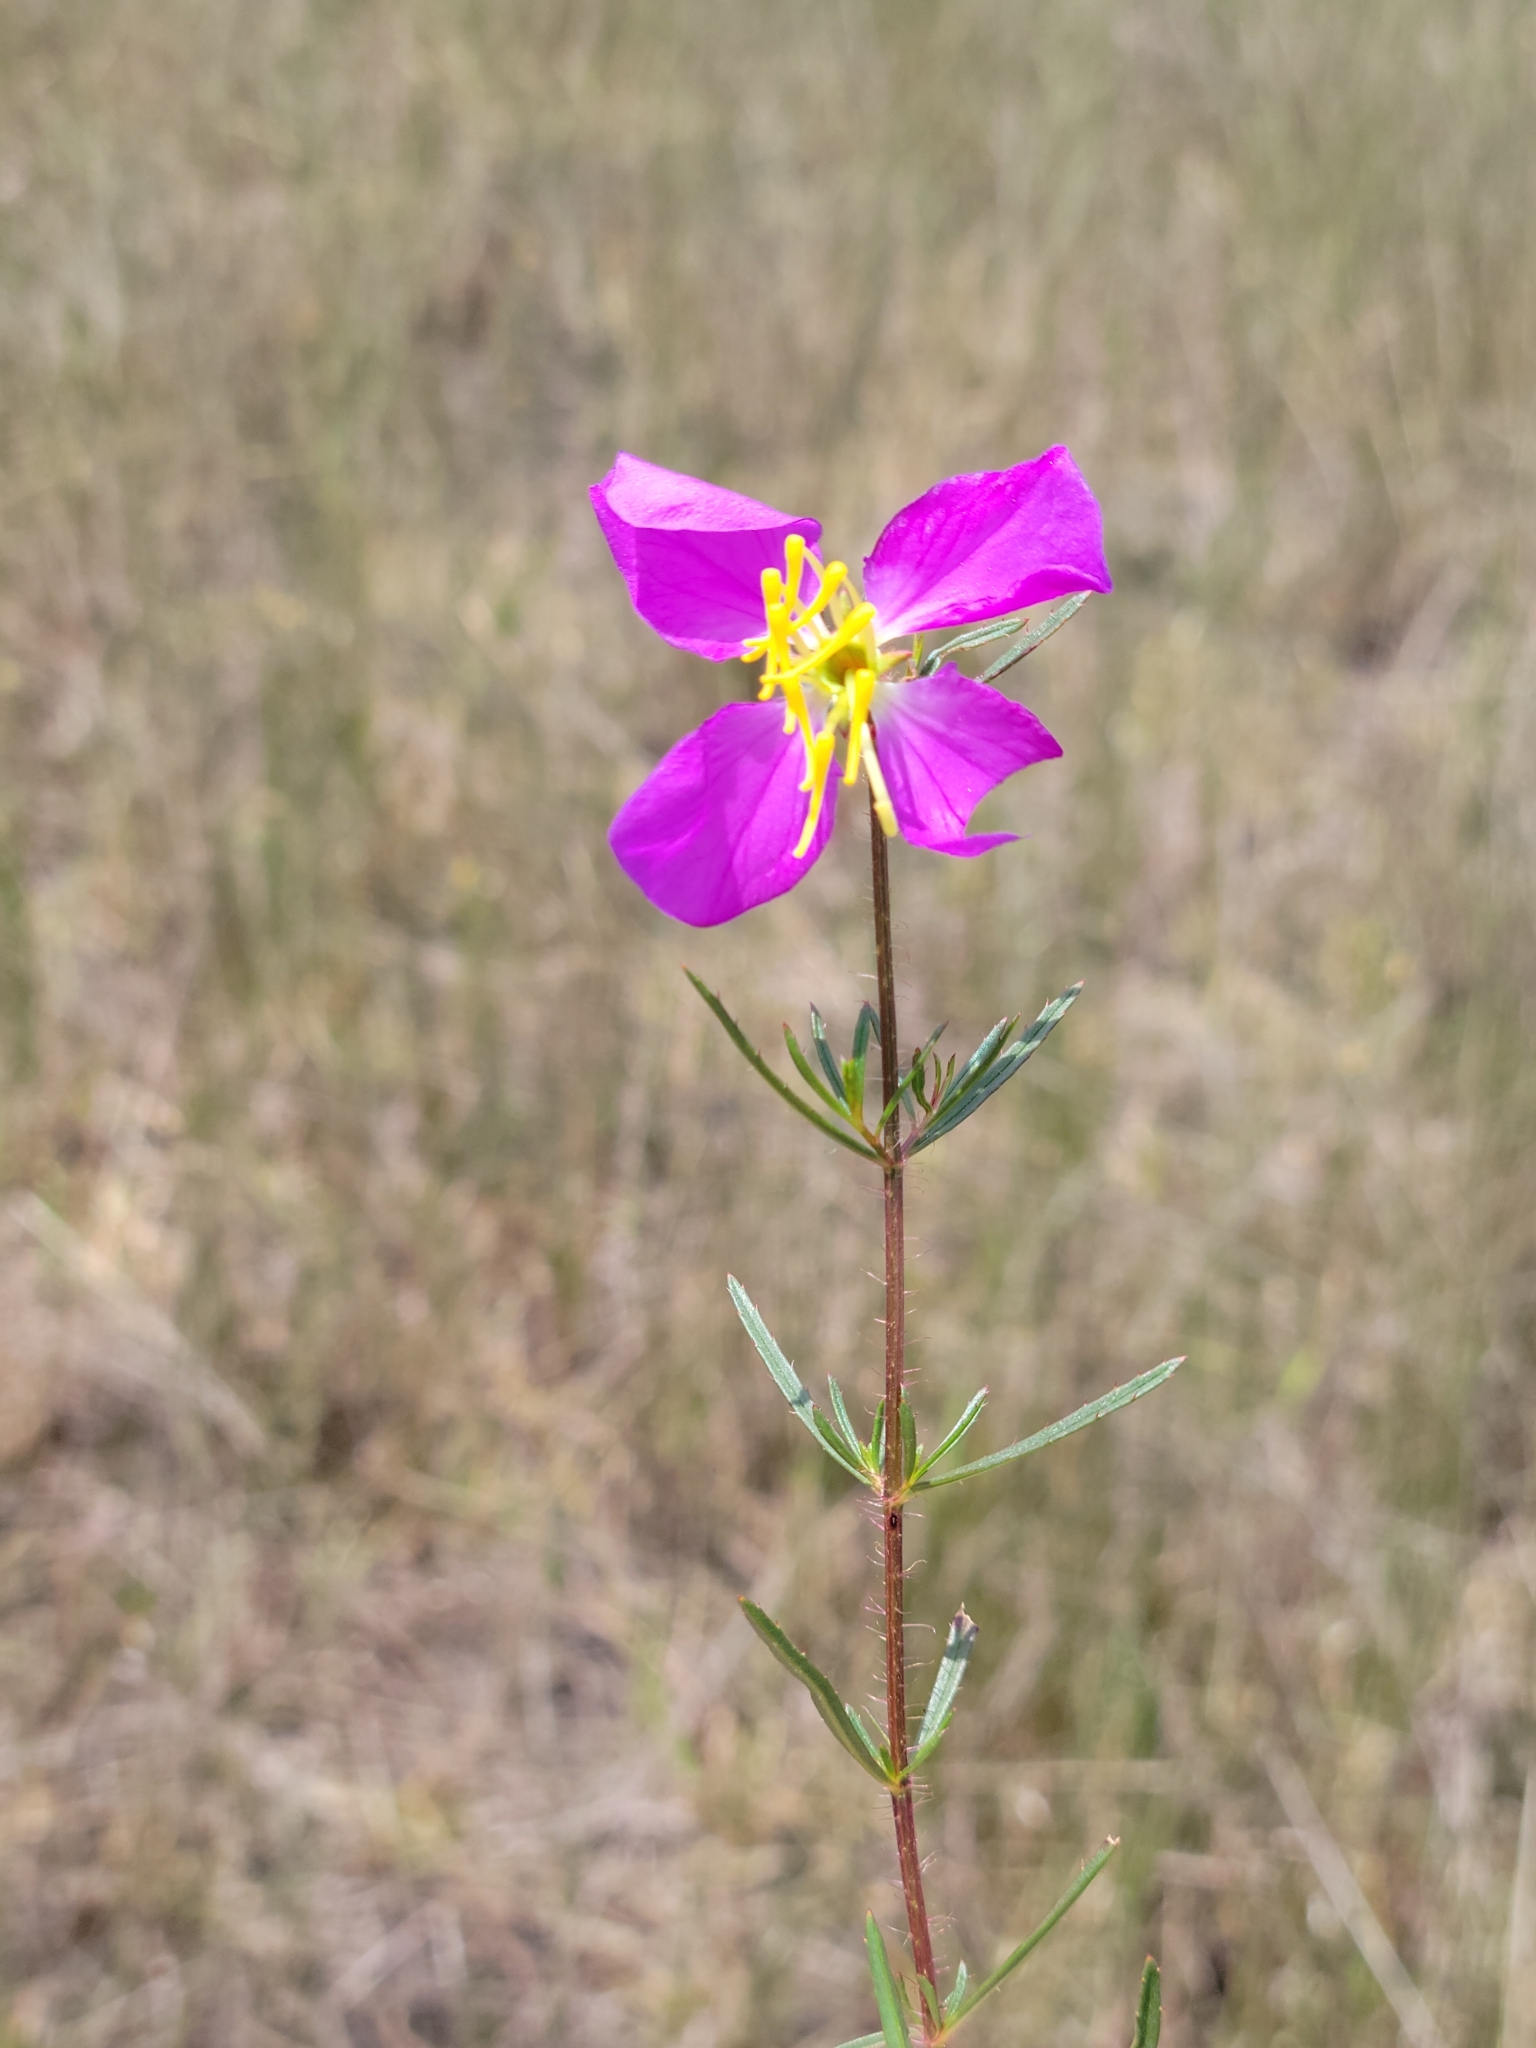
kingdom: Plantae
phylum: Tracheophyta
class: Magnoliopsida
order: Myrtales
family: Melastomataceae
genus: Rhexia
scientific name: Rhexia cubensis
